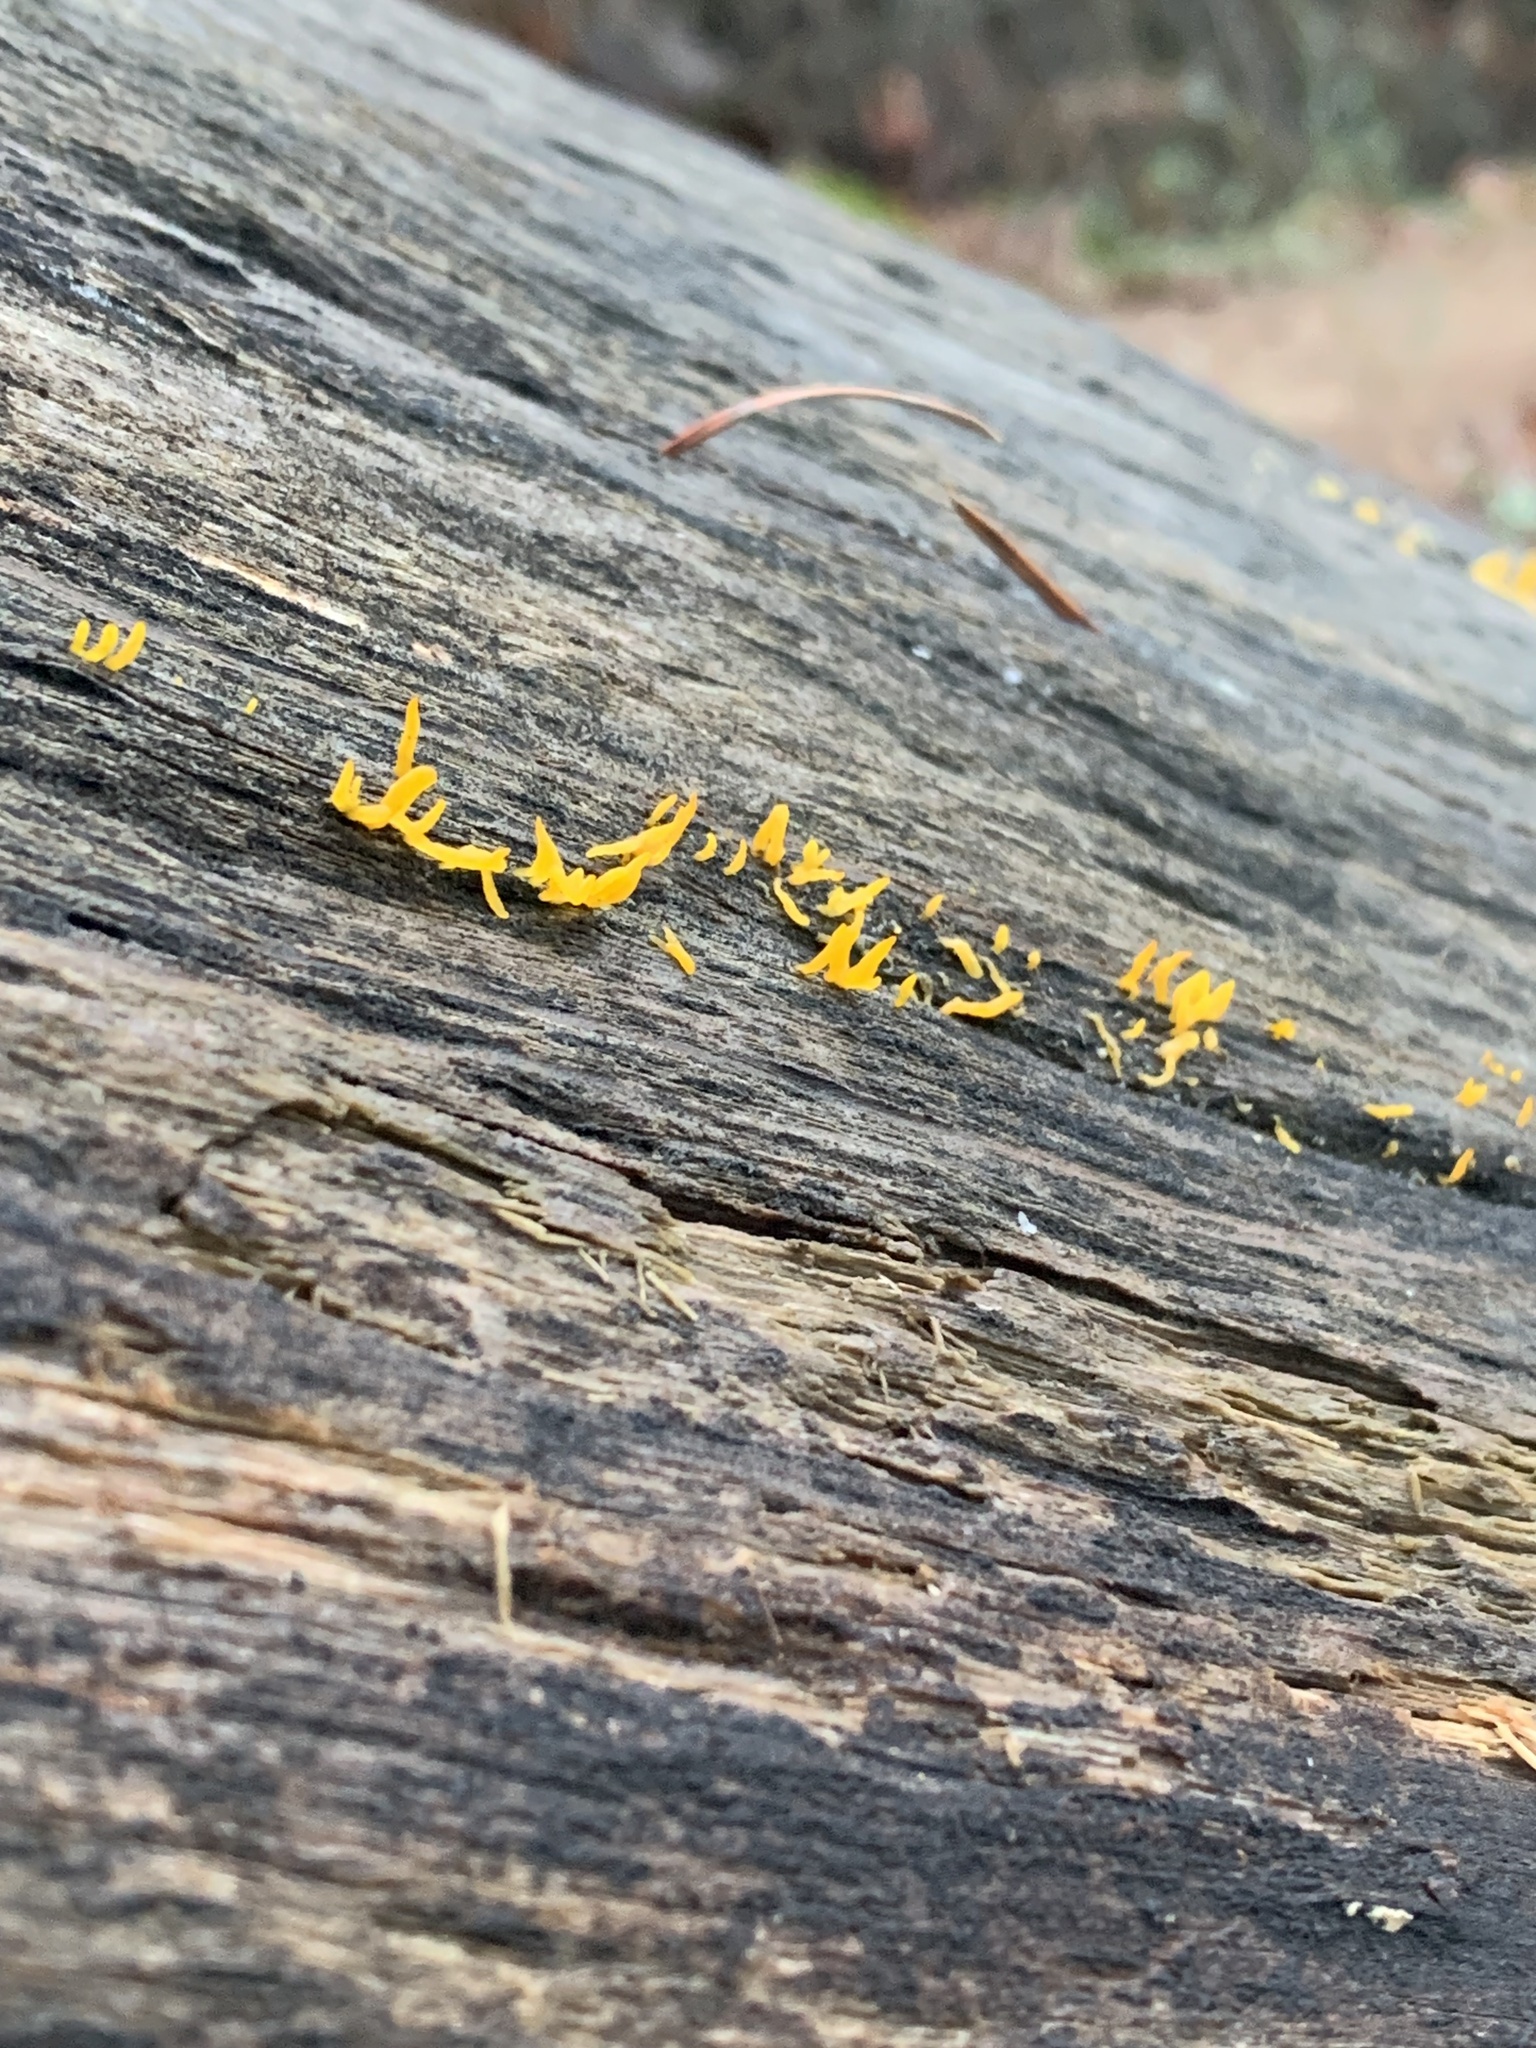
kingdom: Fungi
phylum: Basidiomycota
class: Dacrymycetes
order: Dacrymycetales
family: Dacrymycetaceae
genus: Calocera
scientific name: Calocera cornea
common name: Small stagshorn
